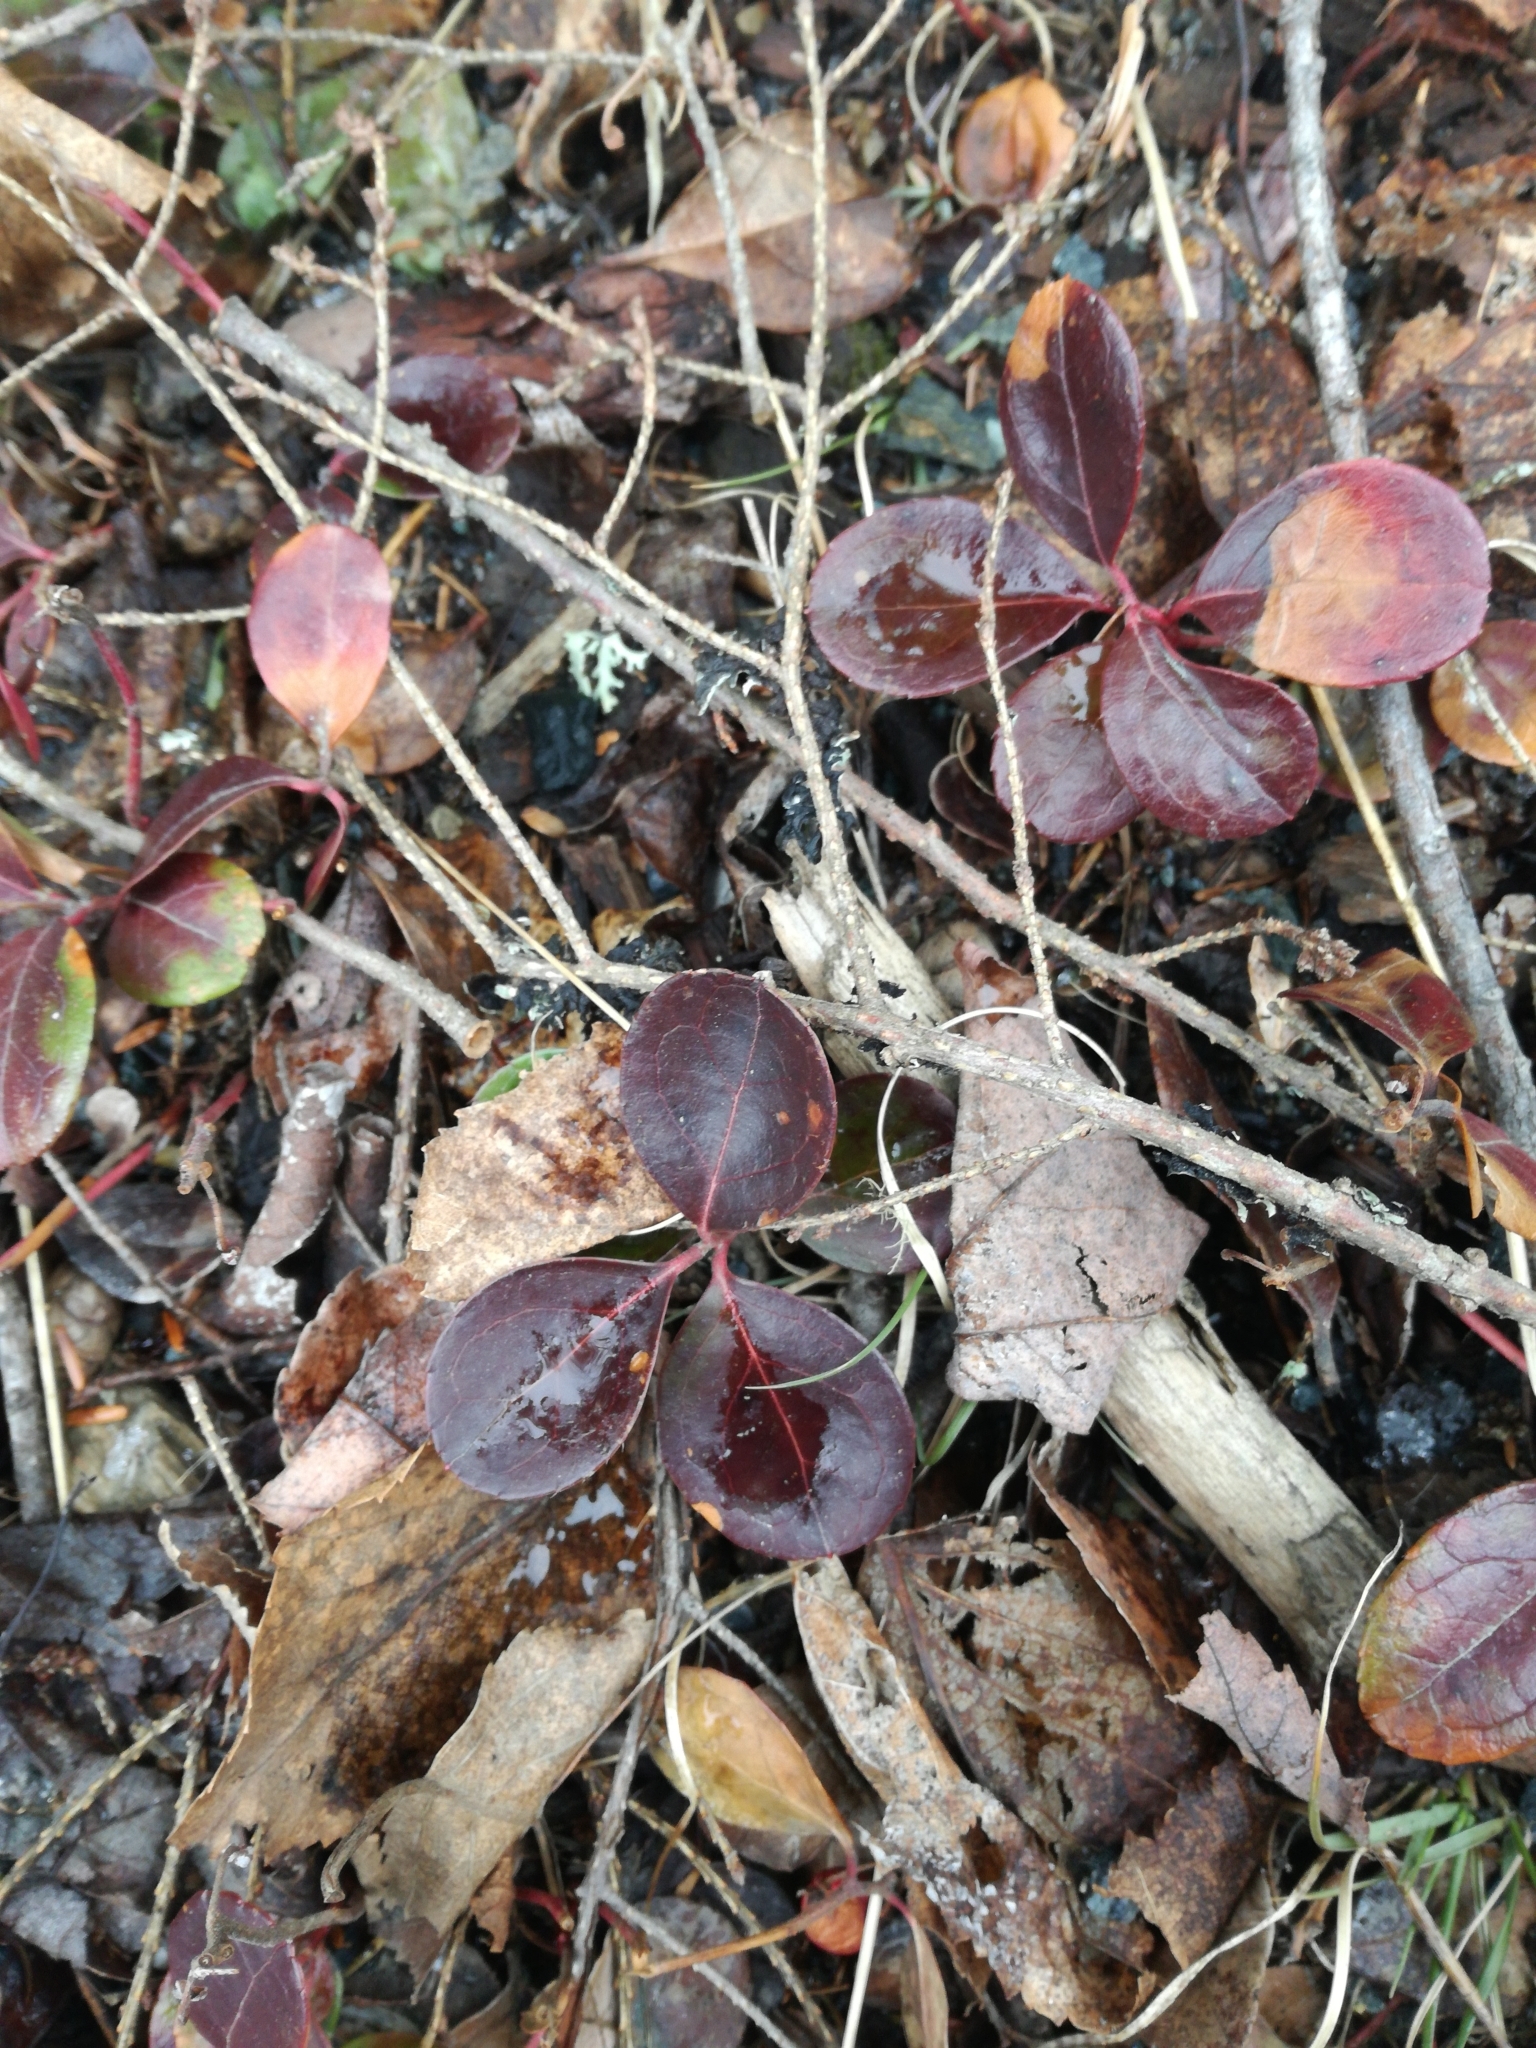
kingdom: Plantae
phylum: Tracheophyta
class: Magnoliopsida
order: Ericales
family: Ericaceae
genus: Gaultheria
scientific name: Gaultheria procumbens
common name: Checkerberry
